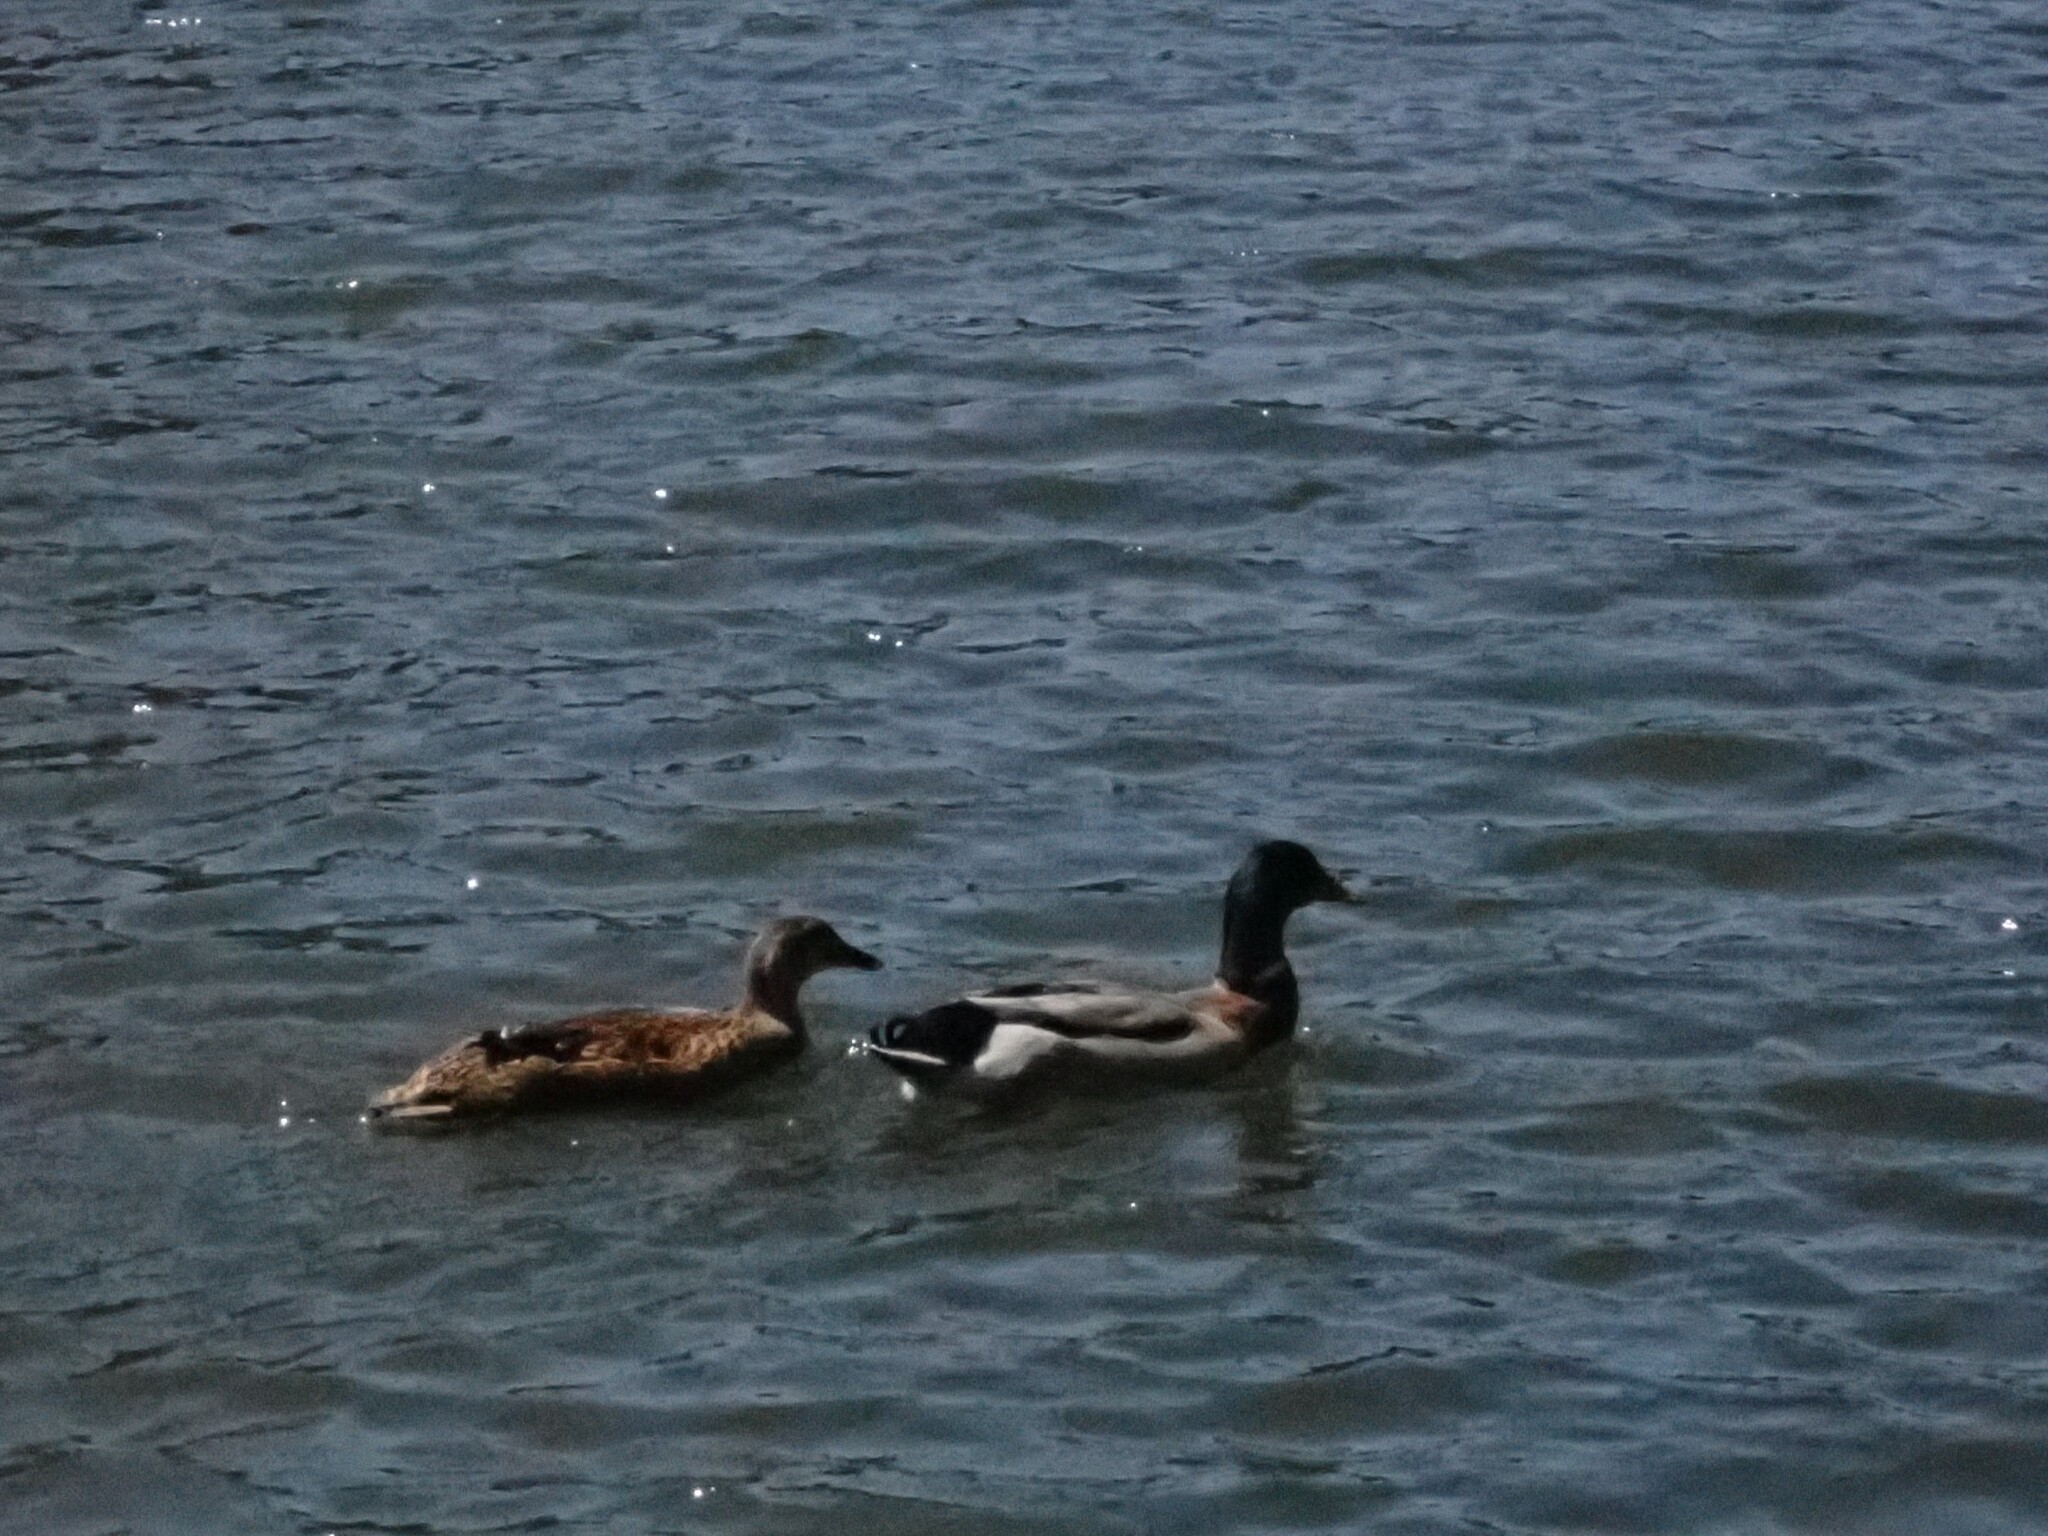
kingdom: Animalia
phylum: Chordata
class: Aves
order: Anseriformes
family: Anatidae
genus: Anas
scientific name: Anas platyrhynchos
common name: Mallard
